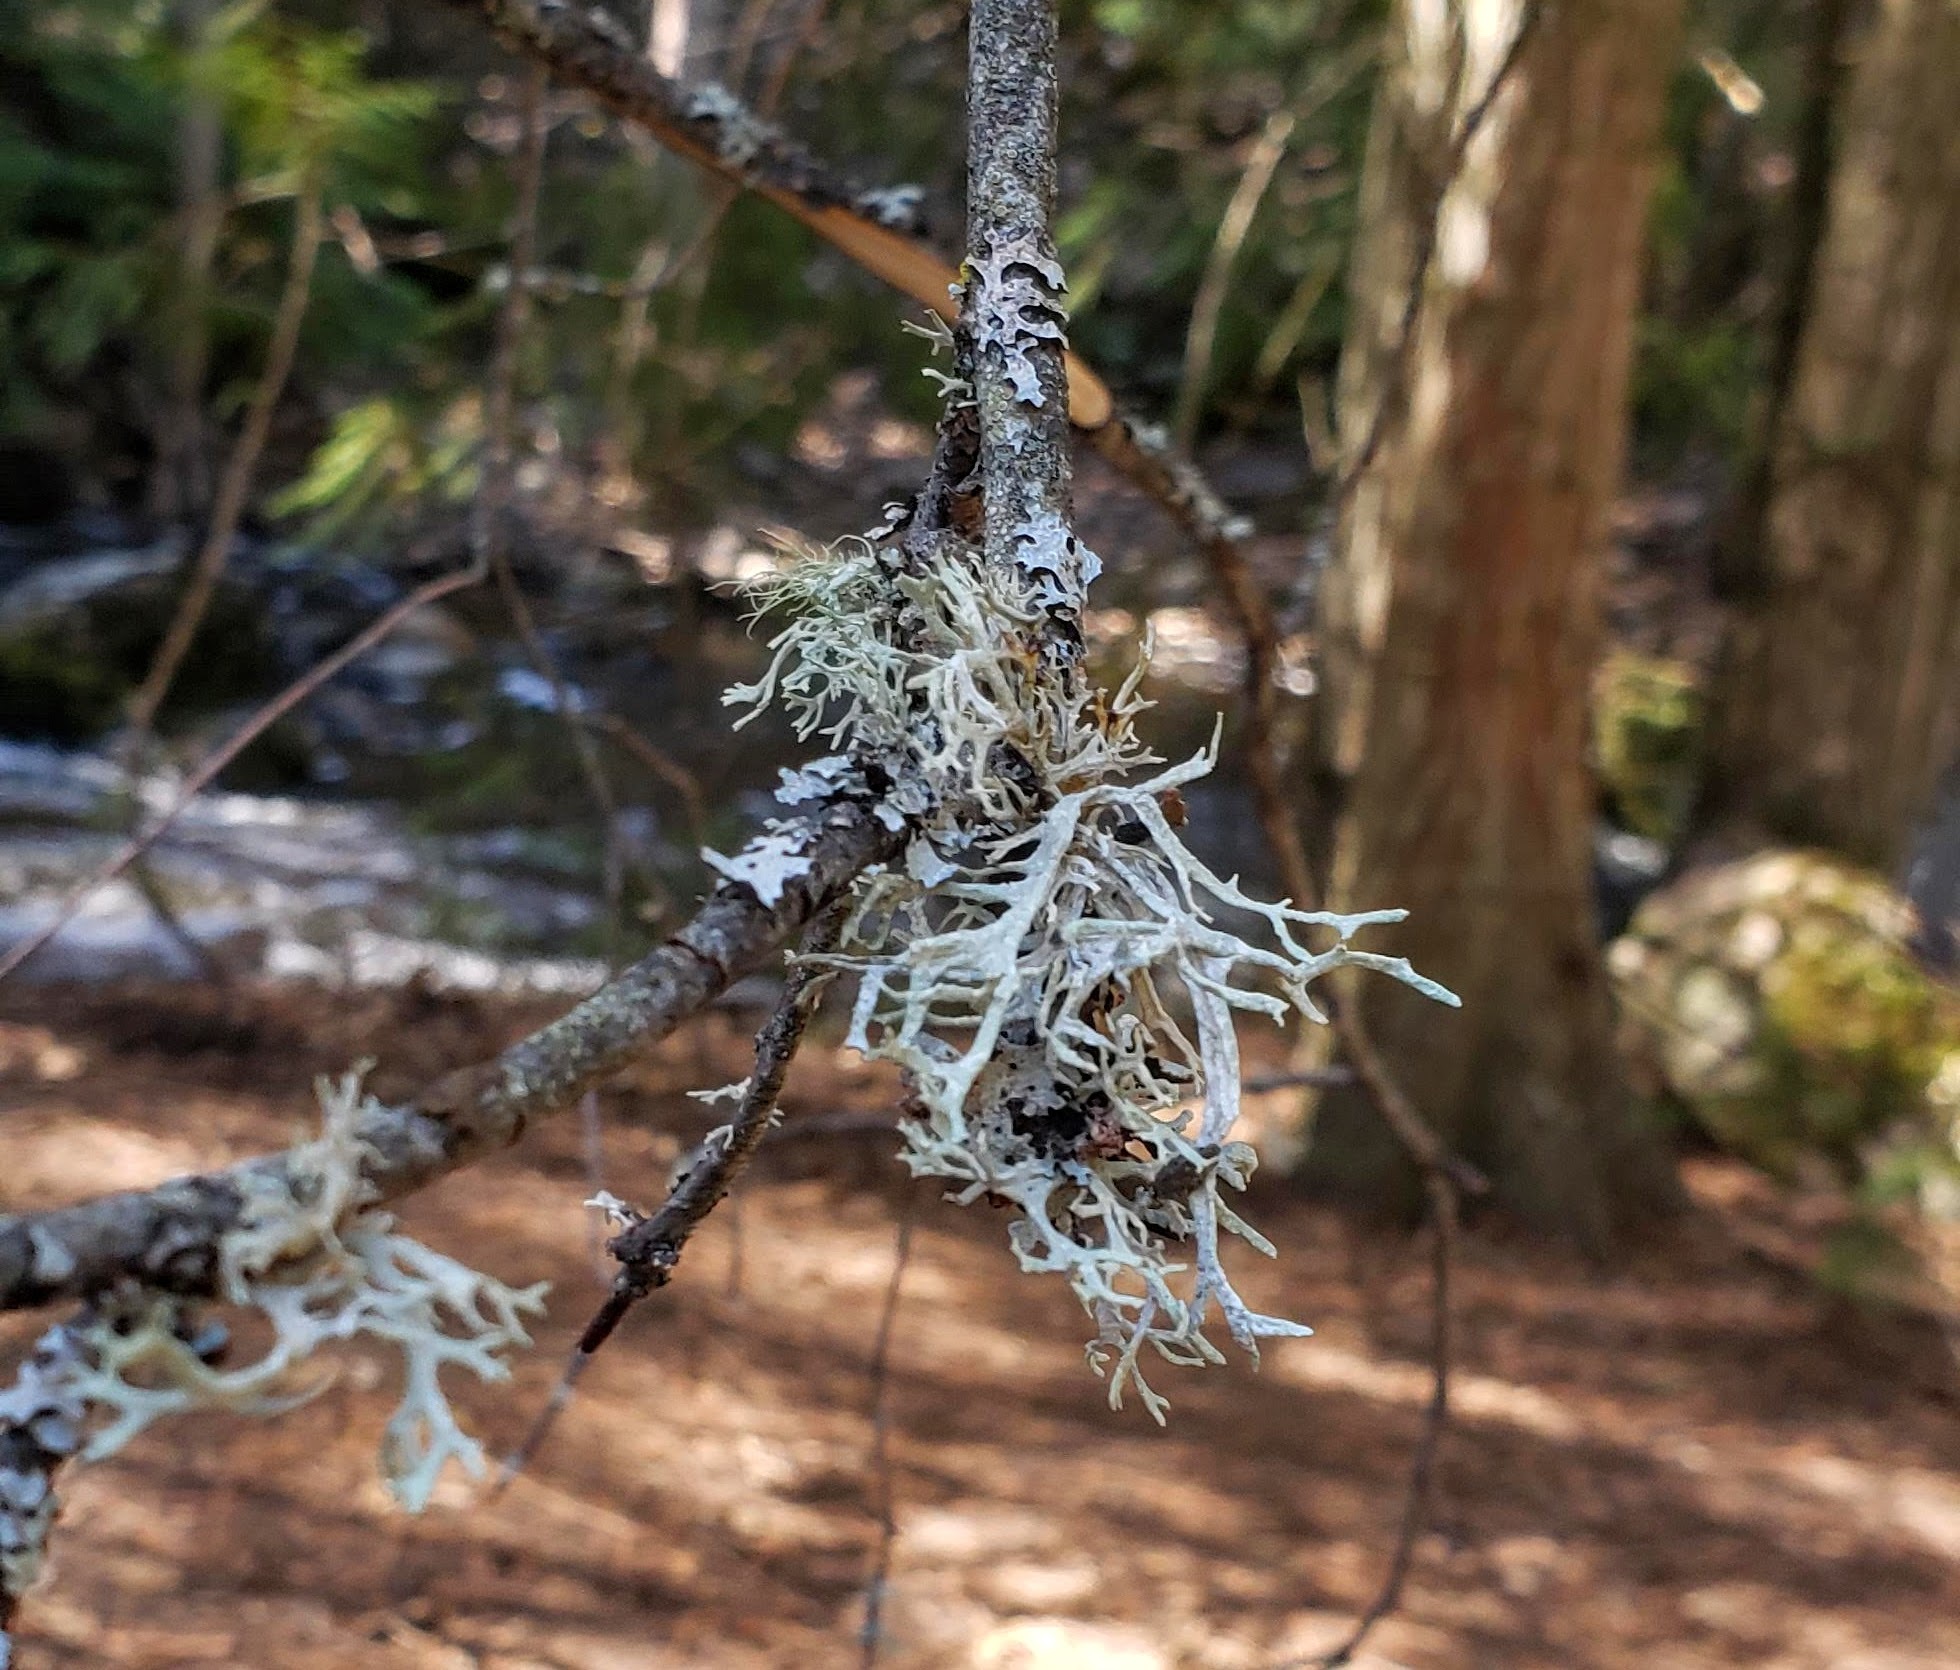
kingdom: Fungi
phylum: Ascomycota
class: Lecanoromycetes
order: Lecanorales
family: Parmeliaceae
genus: Evernia
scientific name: Evernia prunastri
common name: Oak moss
